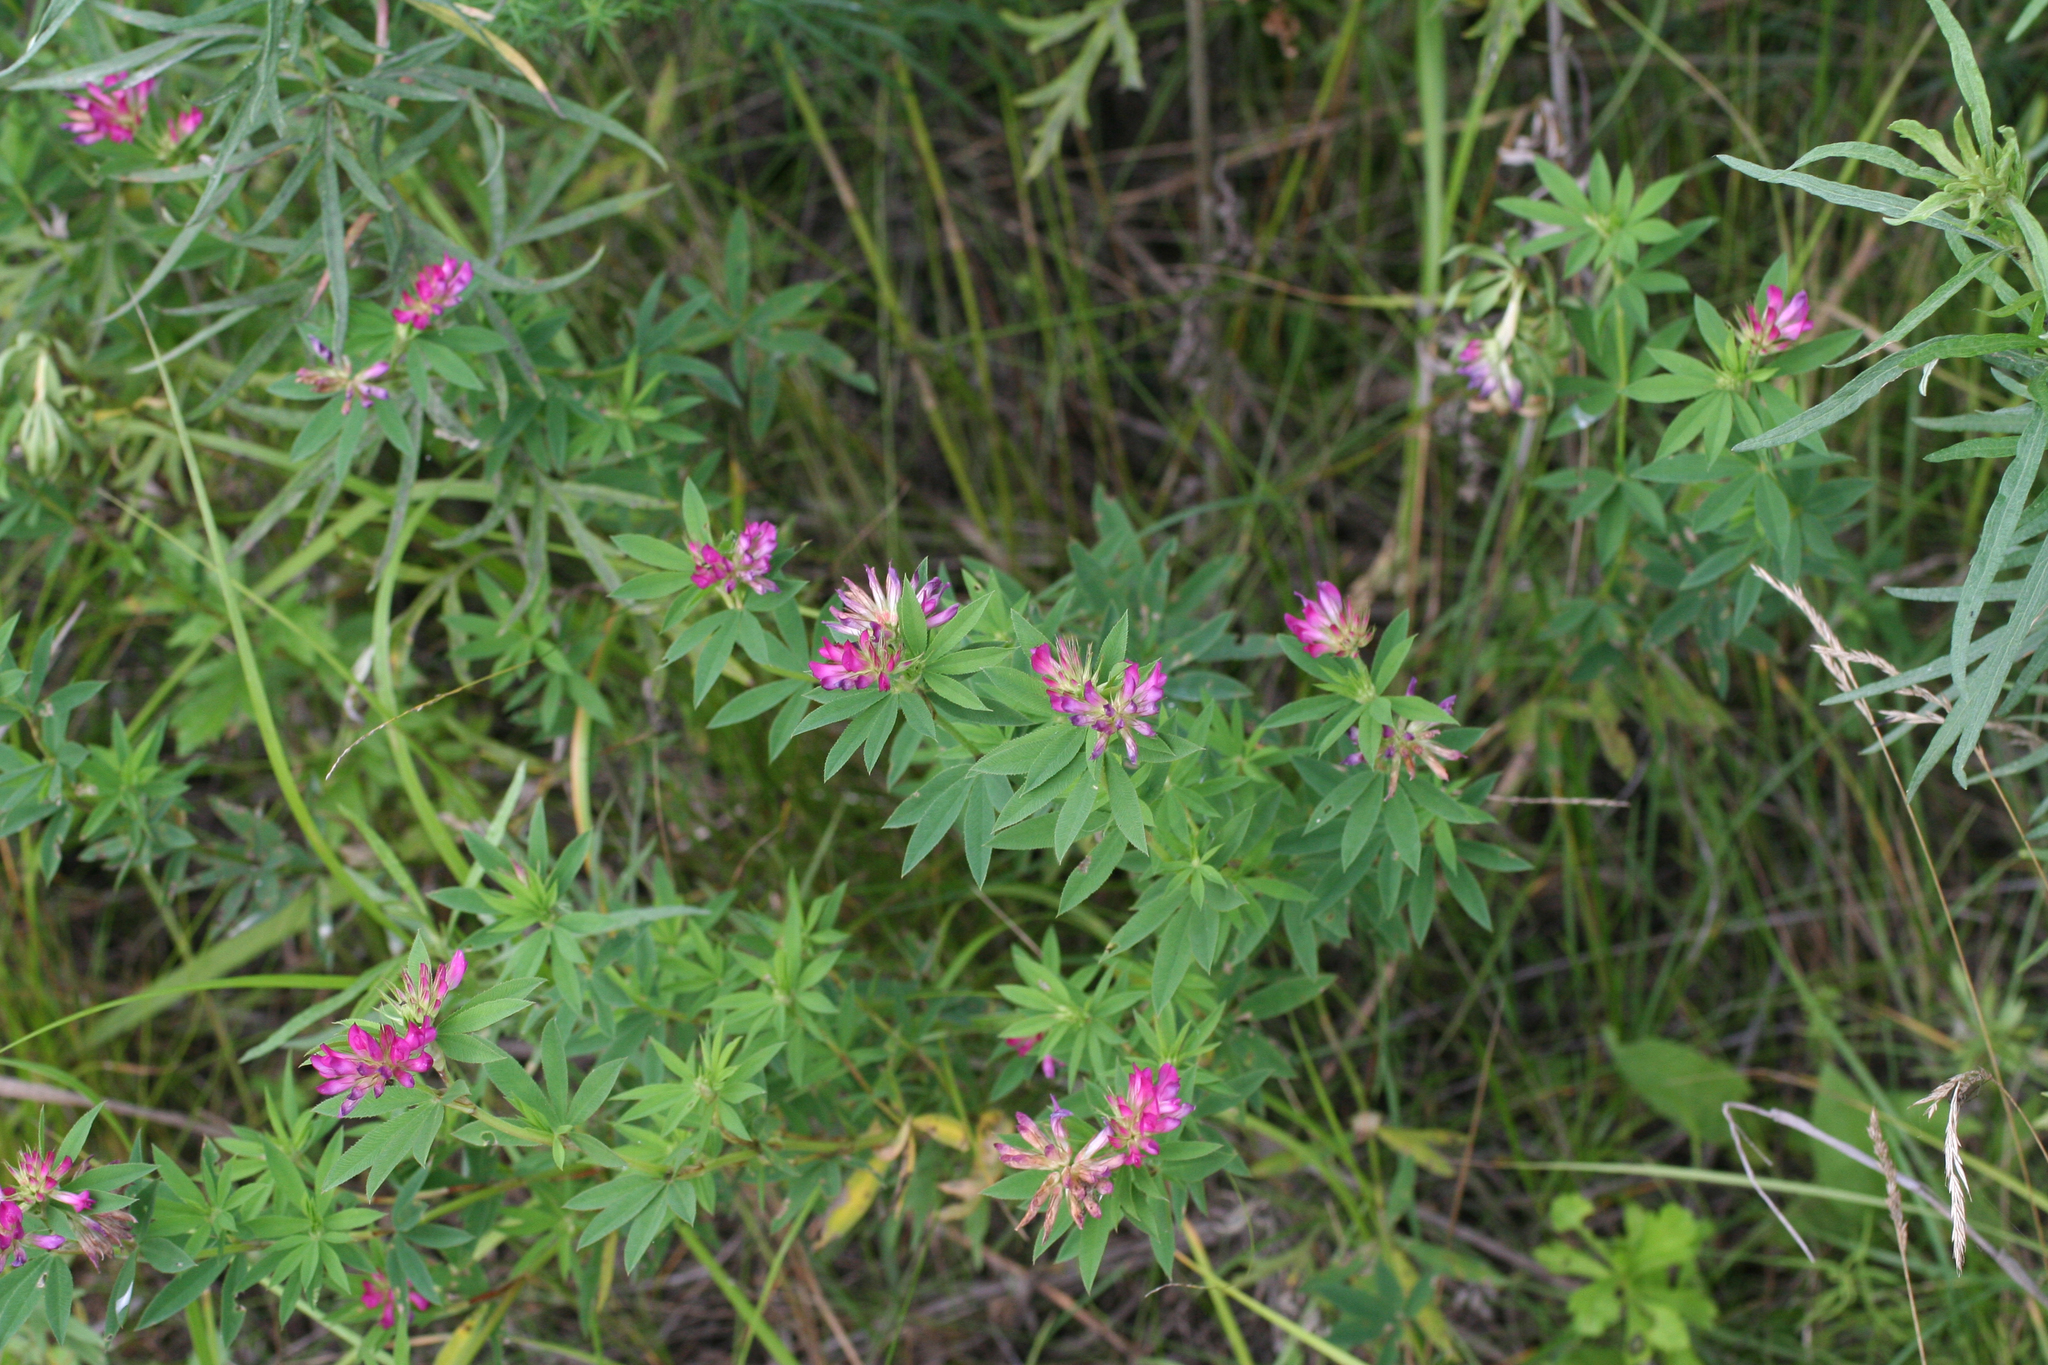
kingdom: Plantae
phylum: Tracheophyta
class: Magnoliopsida
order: Fabales
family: Fabaceae
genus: Trifolium
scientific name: Trifolium lupinaster
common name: Lupine clover
